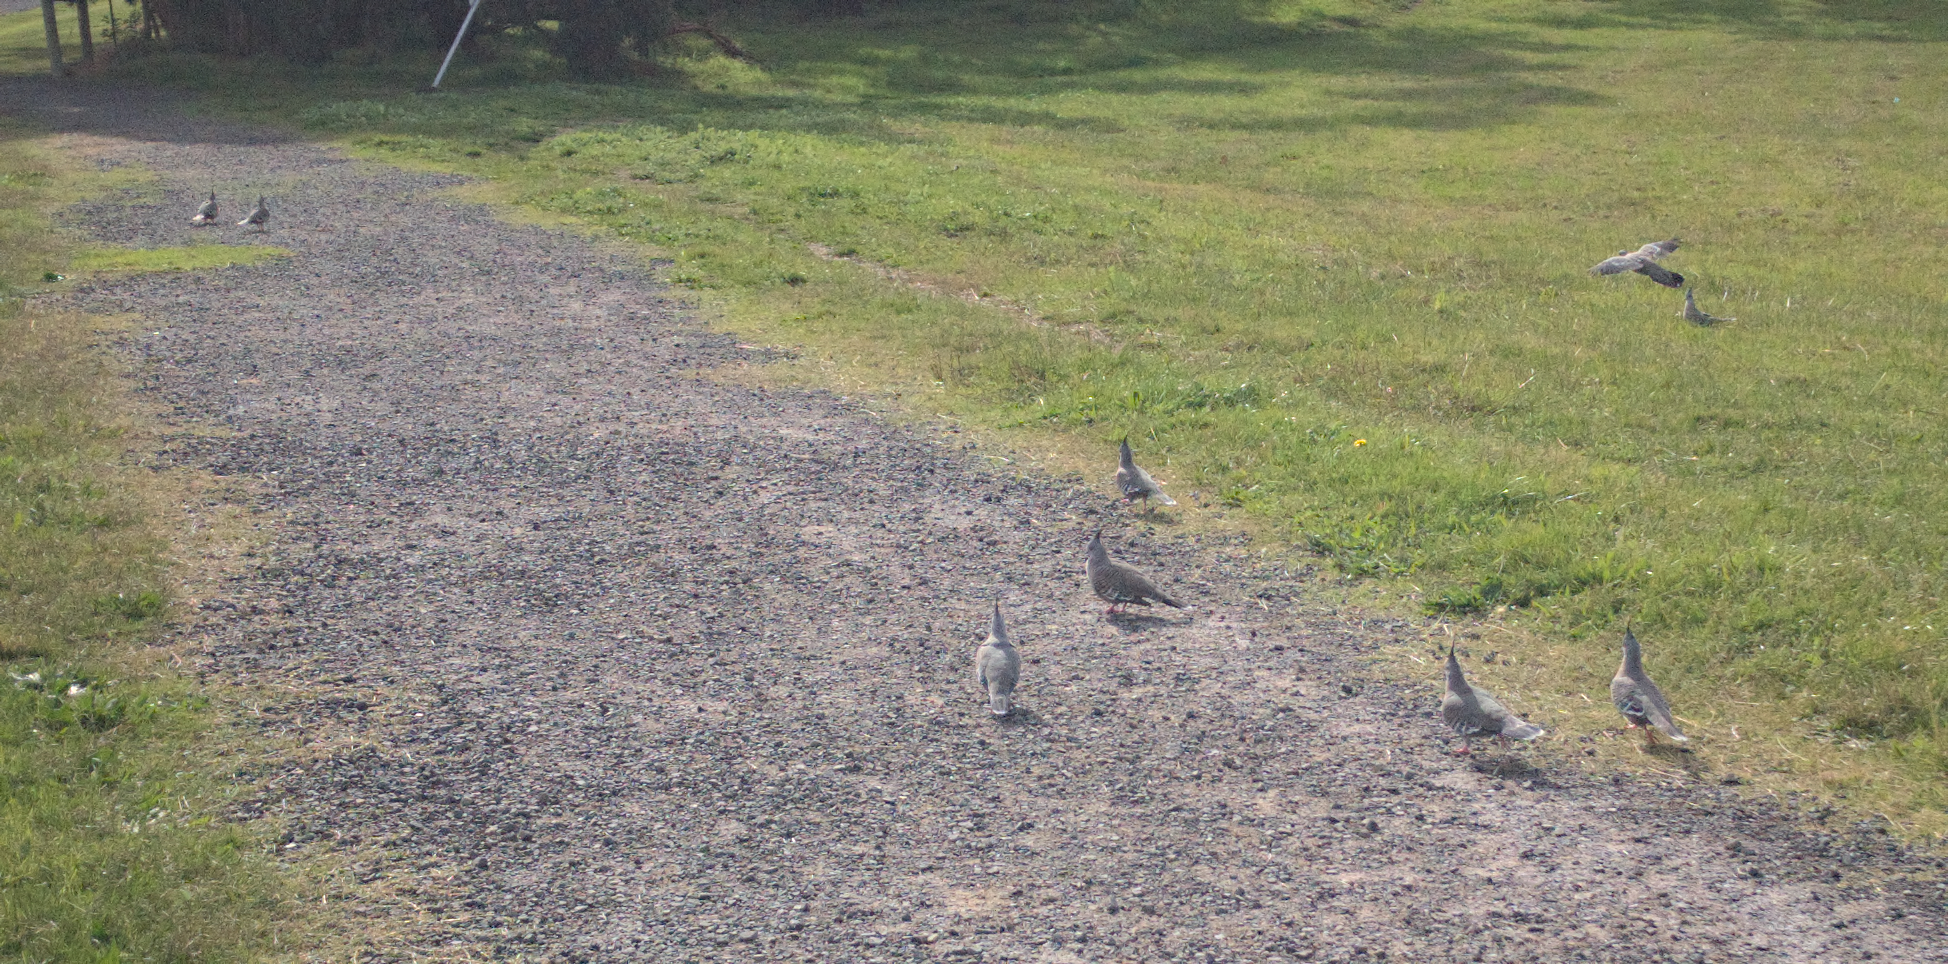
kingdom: Animalia
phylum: Chordata
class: Aves
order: Columbiformes
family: Columbidae
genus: Ocyphaps
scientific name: Ocyphaps lophotes
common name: Crested pigeon
